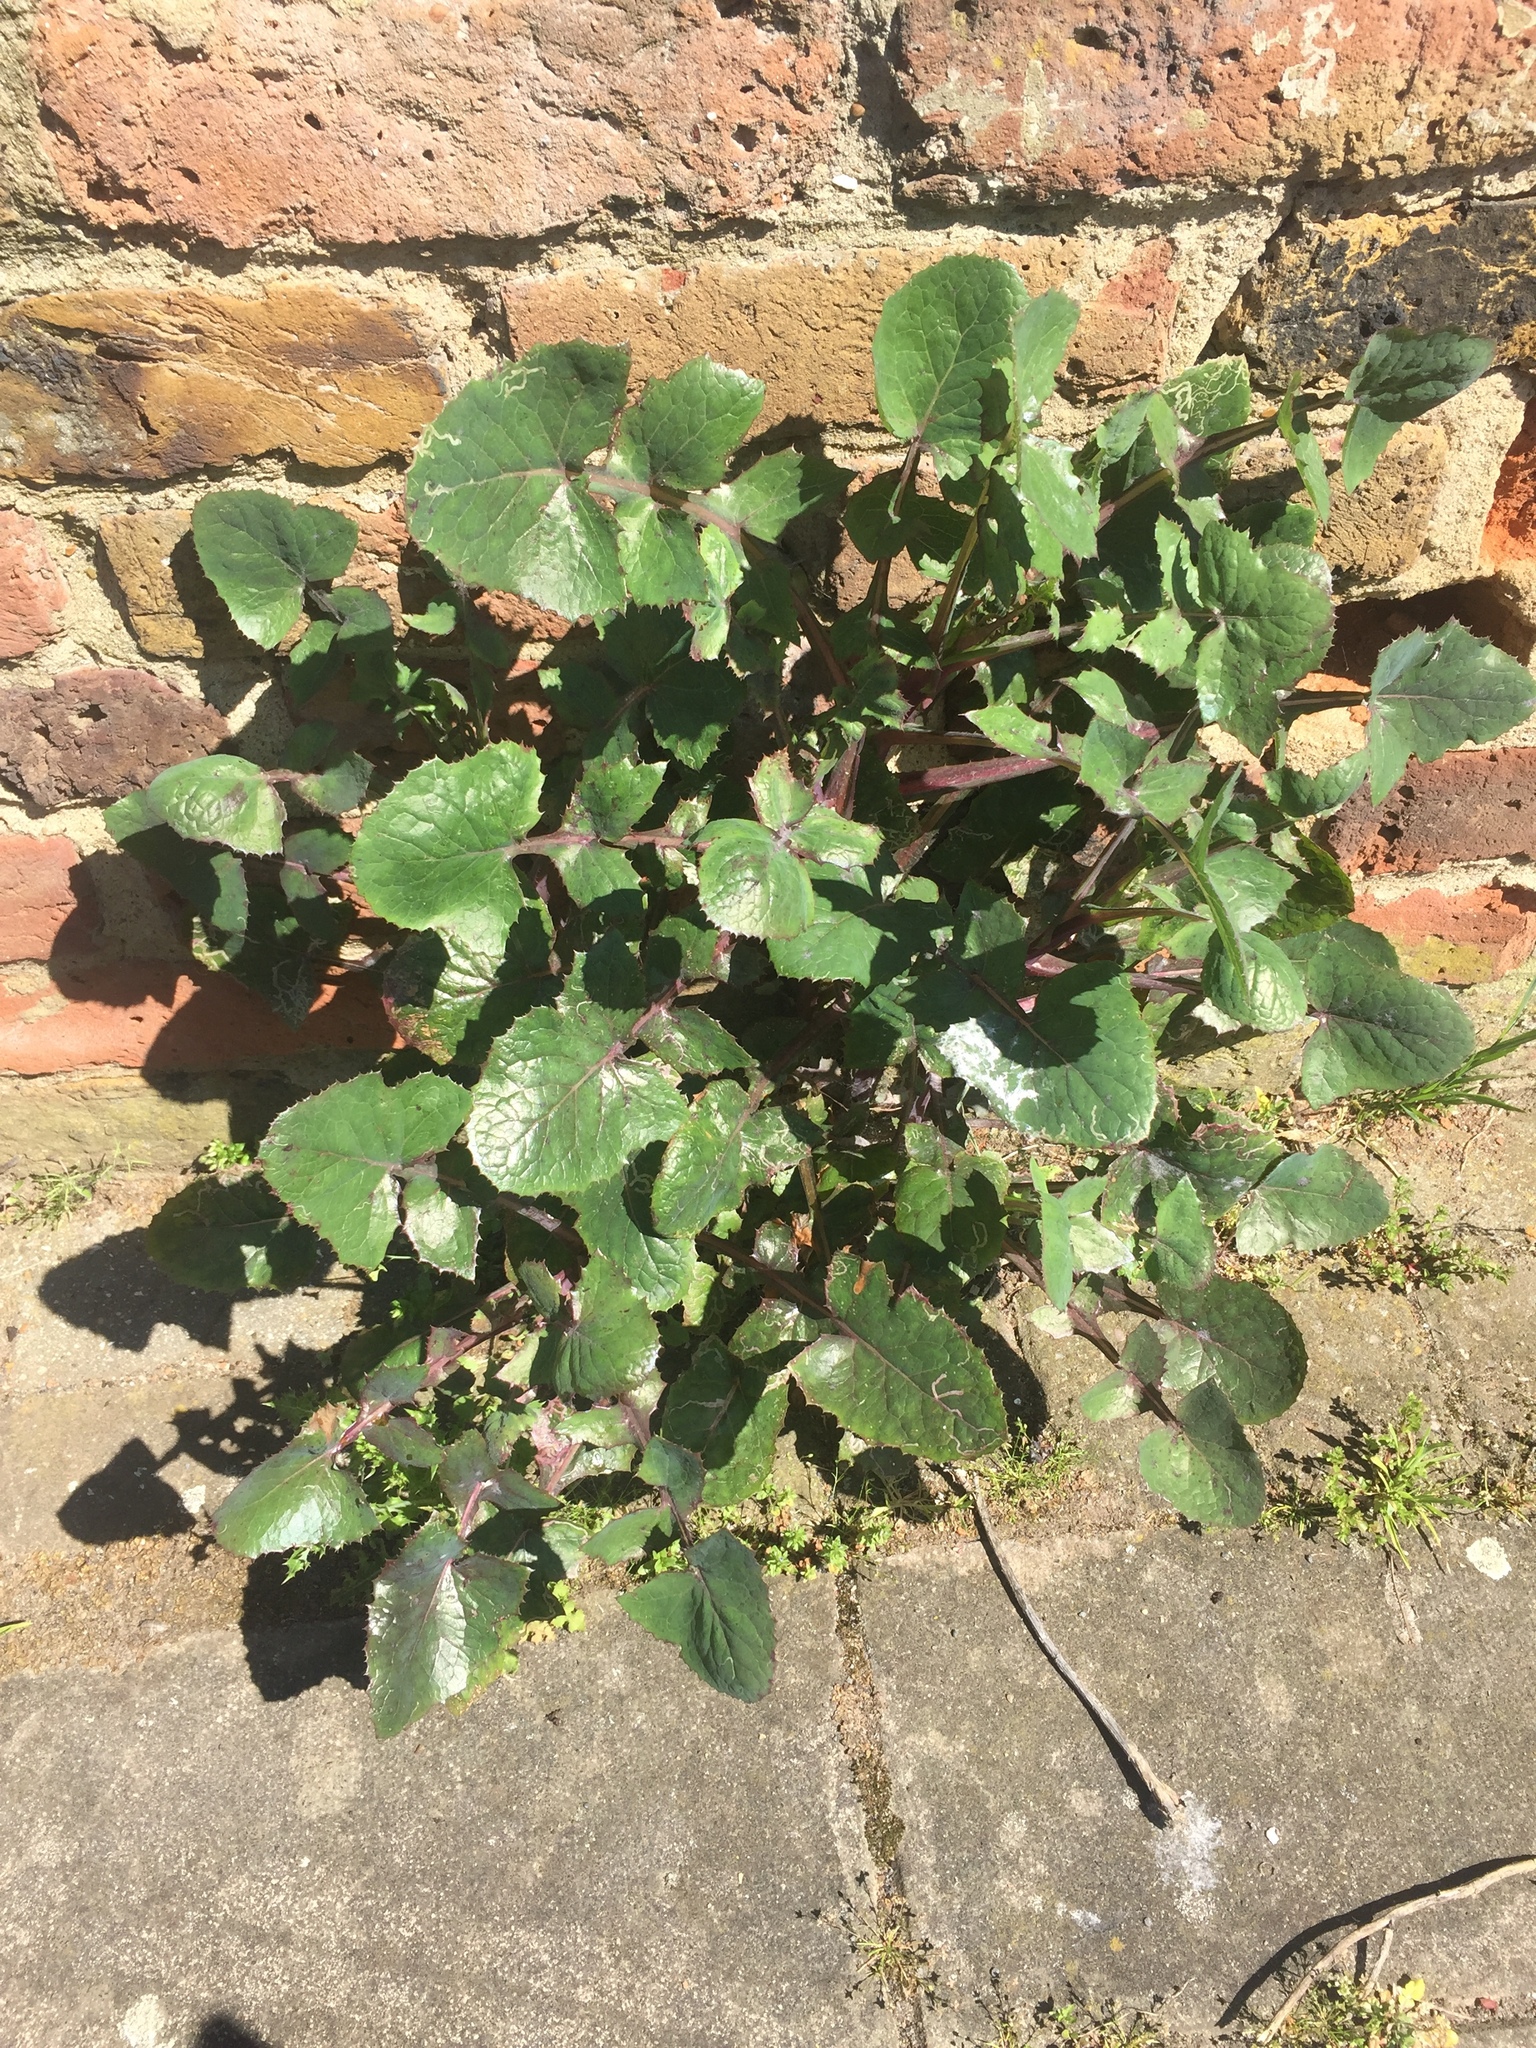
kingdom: Plantae
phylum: Tracheophyta
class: Magnoliopsida
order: Asterales
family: Asteraceae
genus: Sonchus
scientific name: Sonchus oleraceus
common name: Common sowthistle
